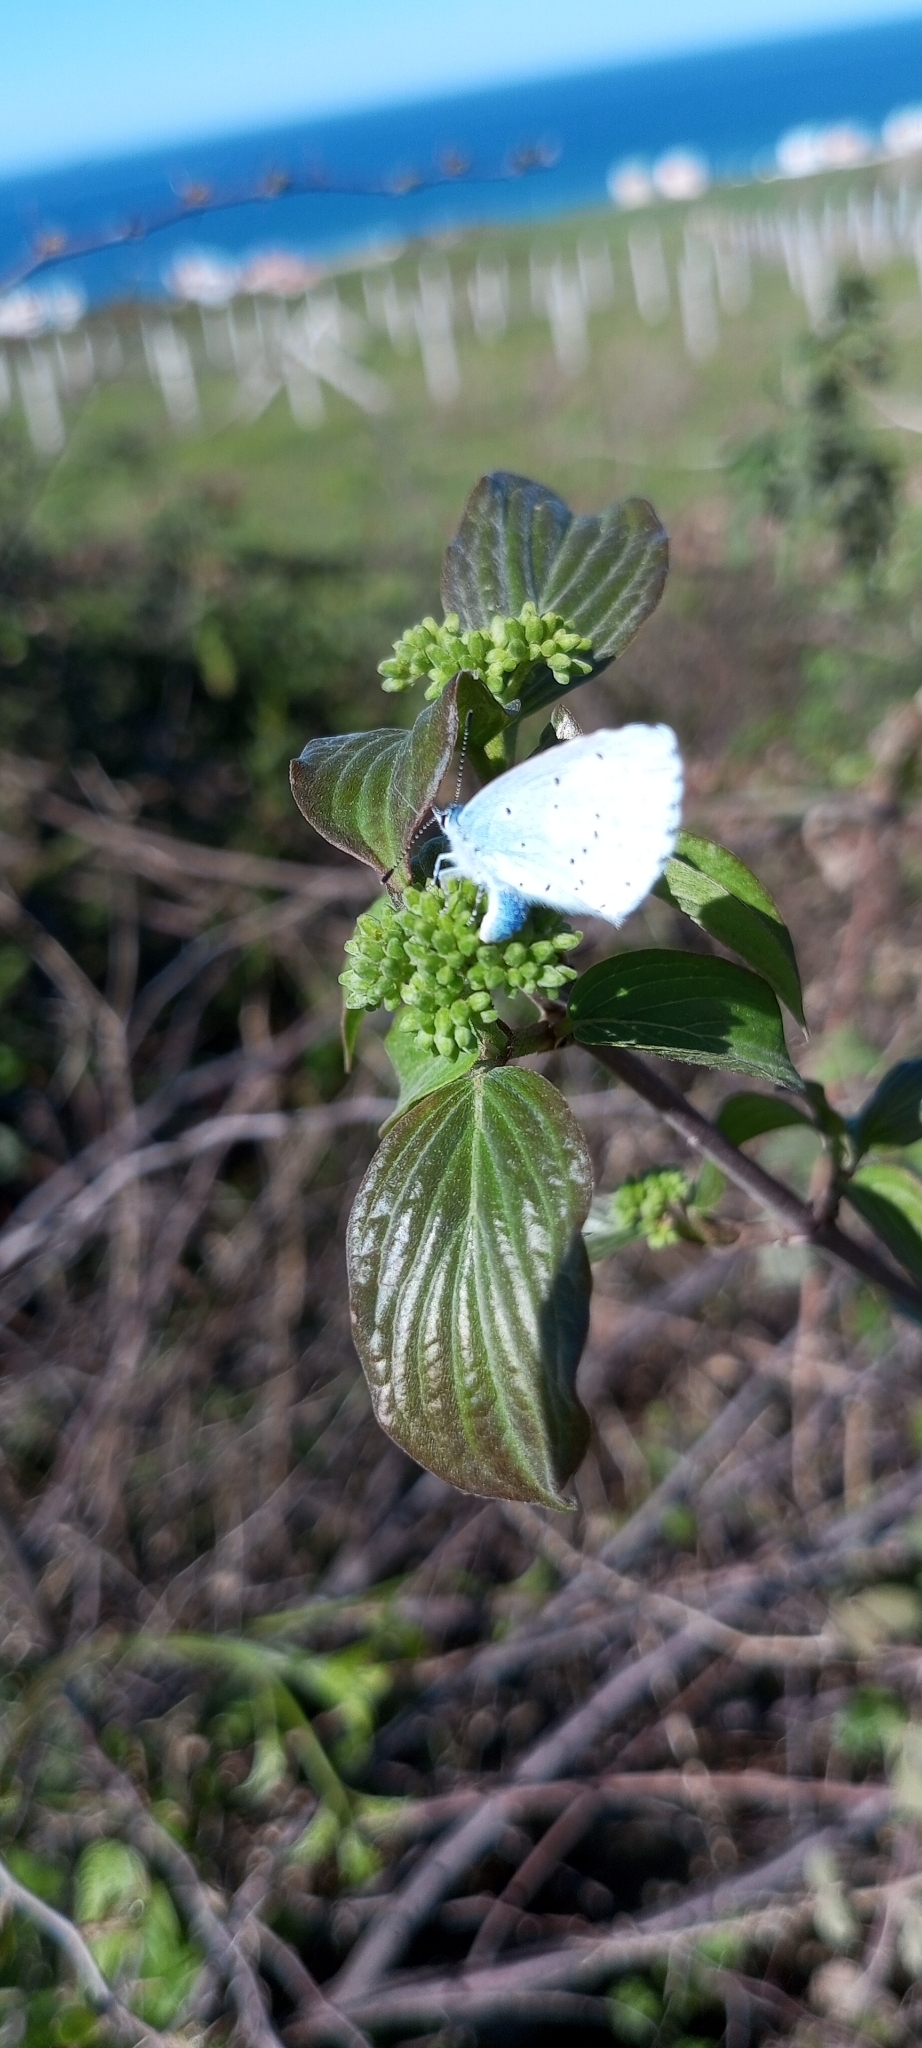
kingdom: Animalia
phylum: Arthropoda
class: Insecta
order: Lepidoptera
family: Lycaenidae
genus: Celastrina
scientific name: Celastrina argiolus
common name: Holly blue
